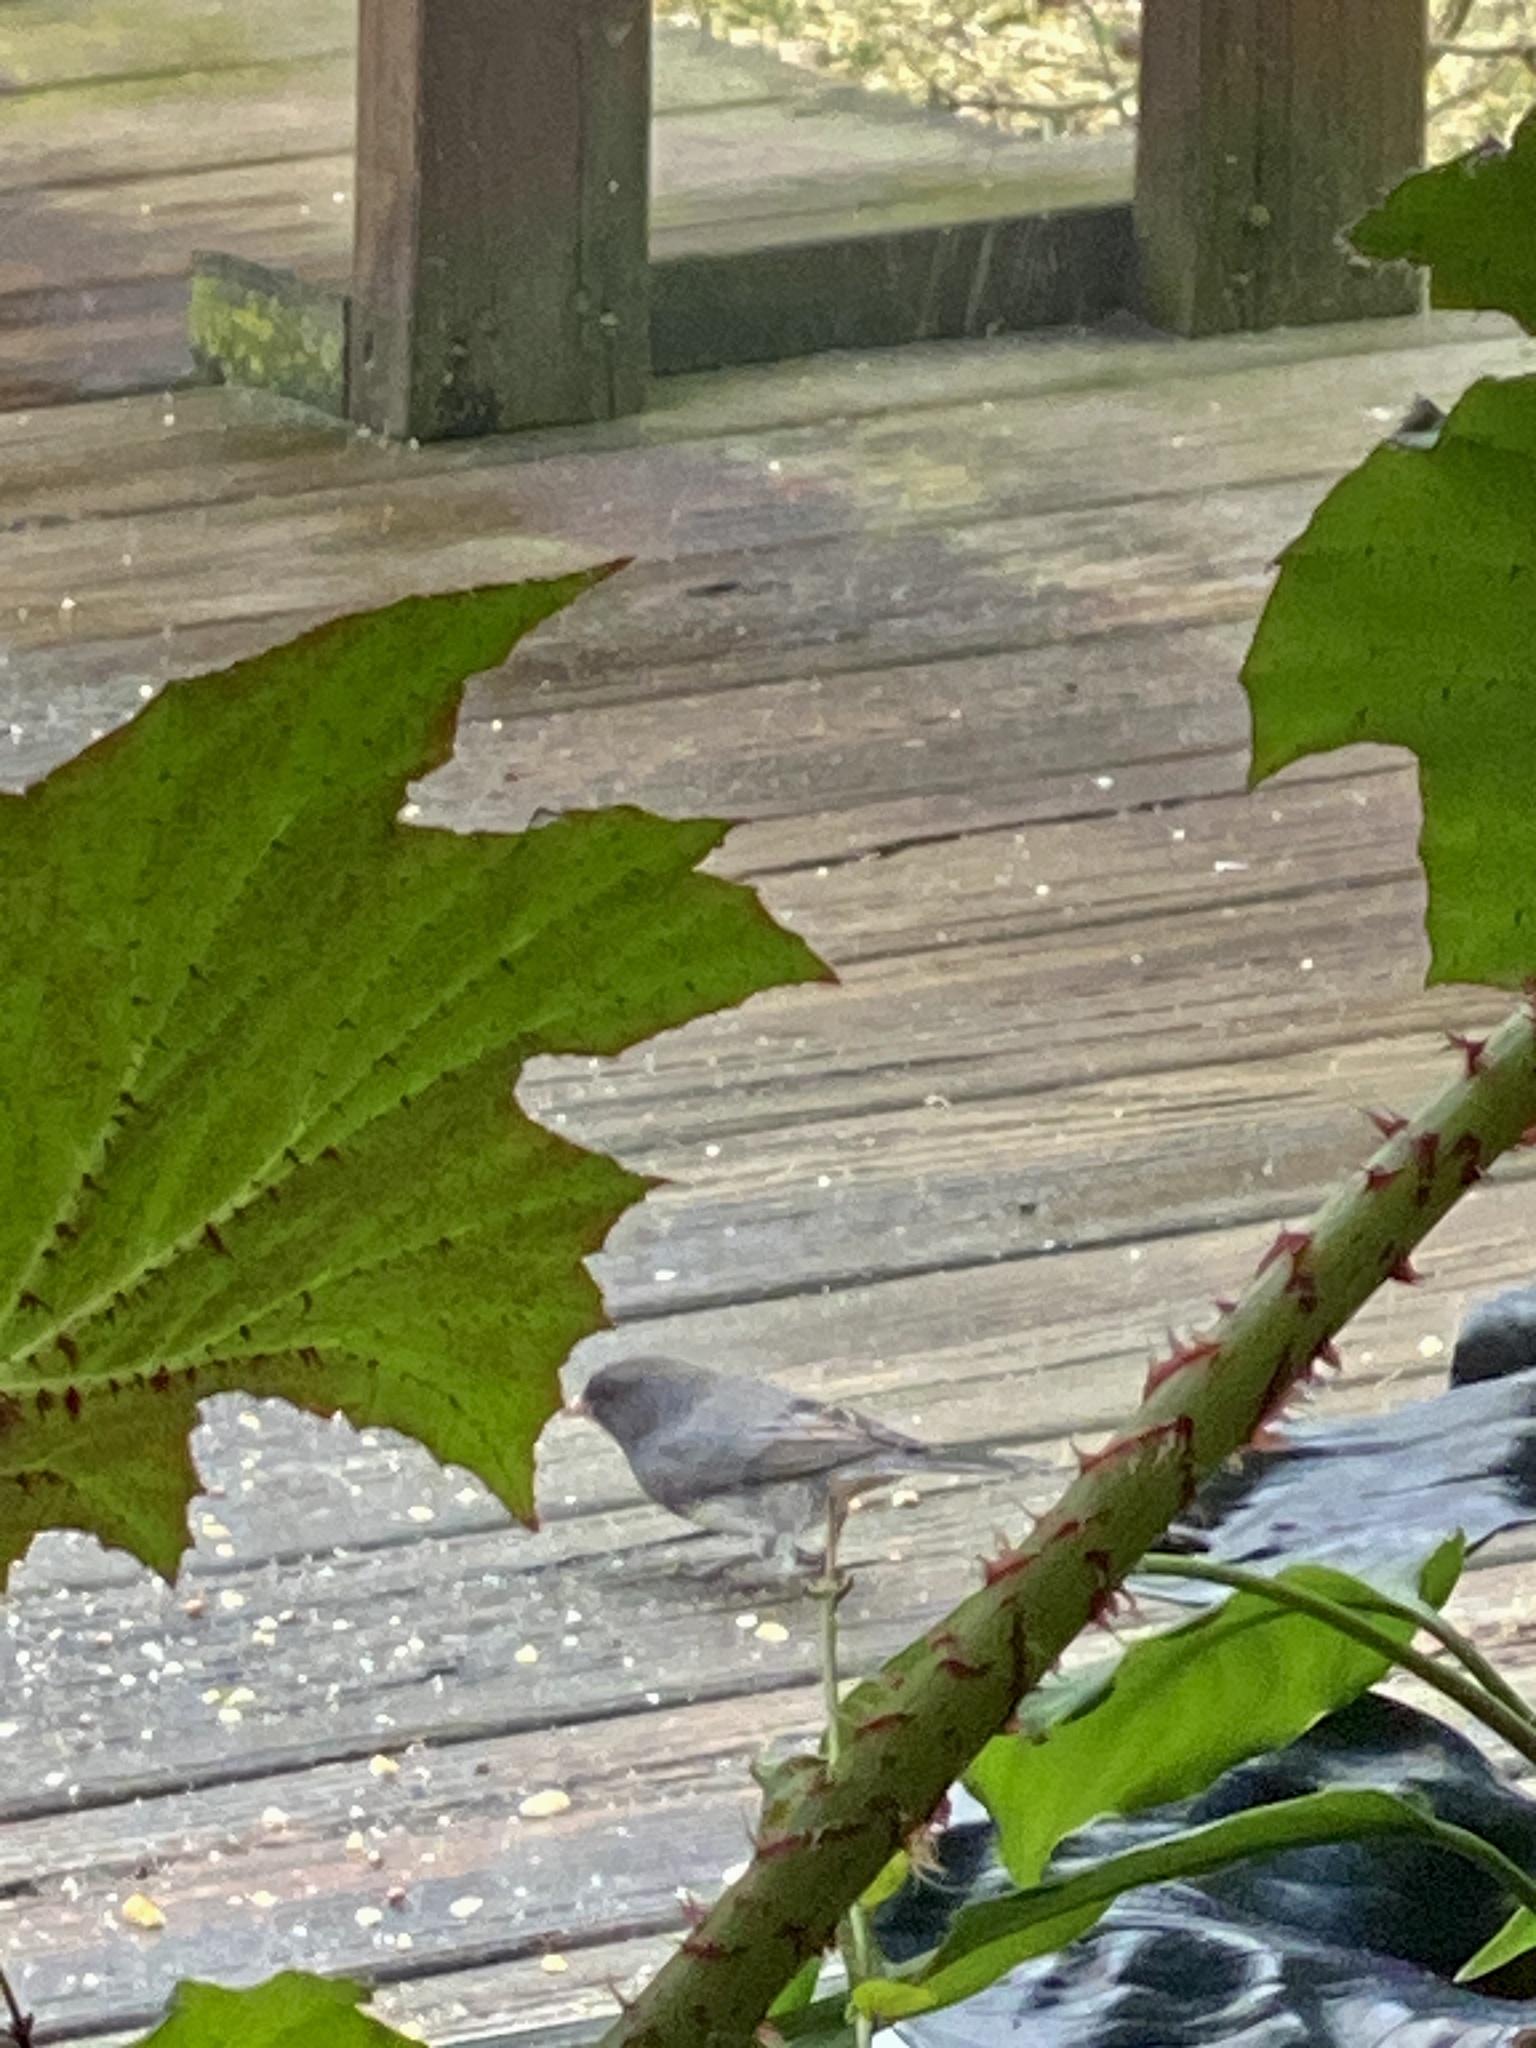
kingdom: Animalia
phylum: Chordata
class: Aves
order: Passeriformes
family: Passerellidae
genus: Junco
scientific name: Junco hyemalis
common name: Dark-eyed junco
